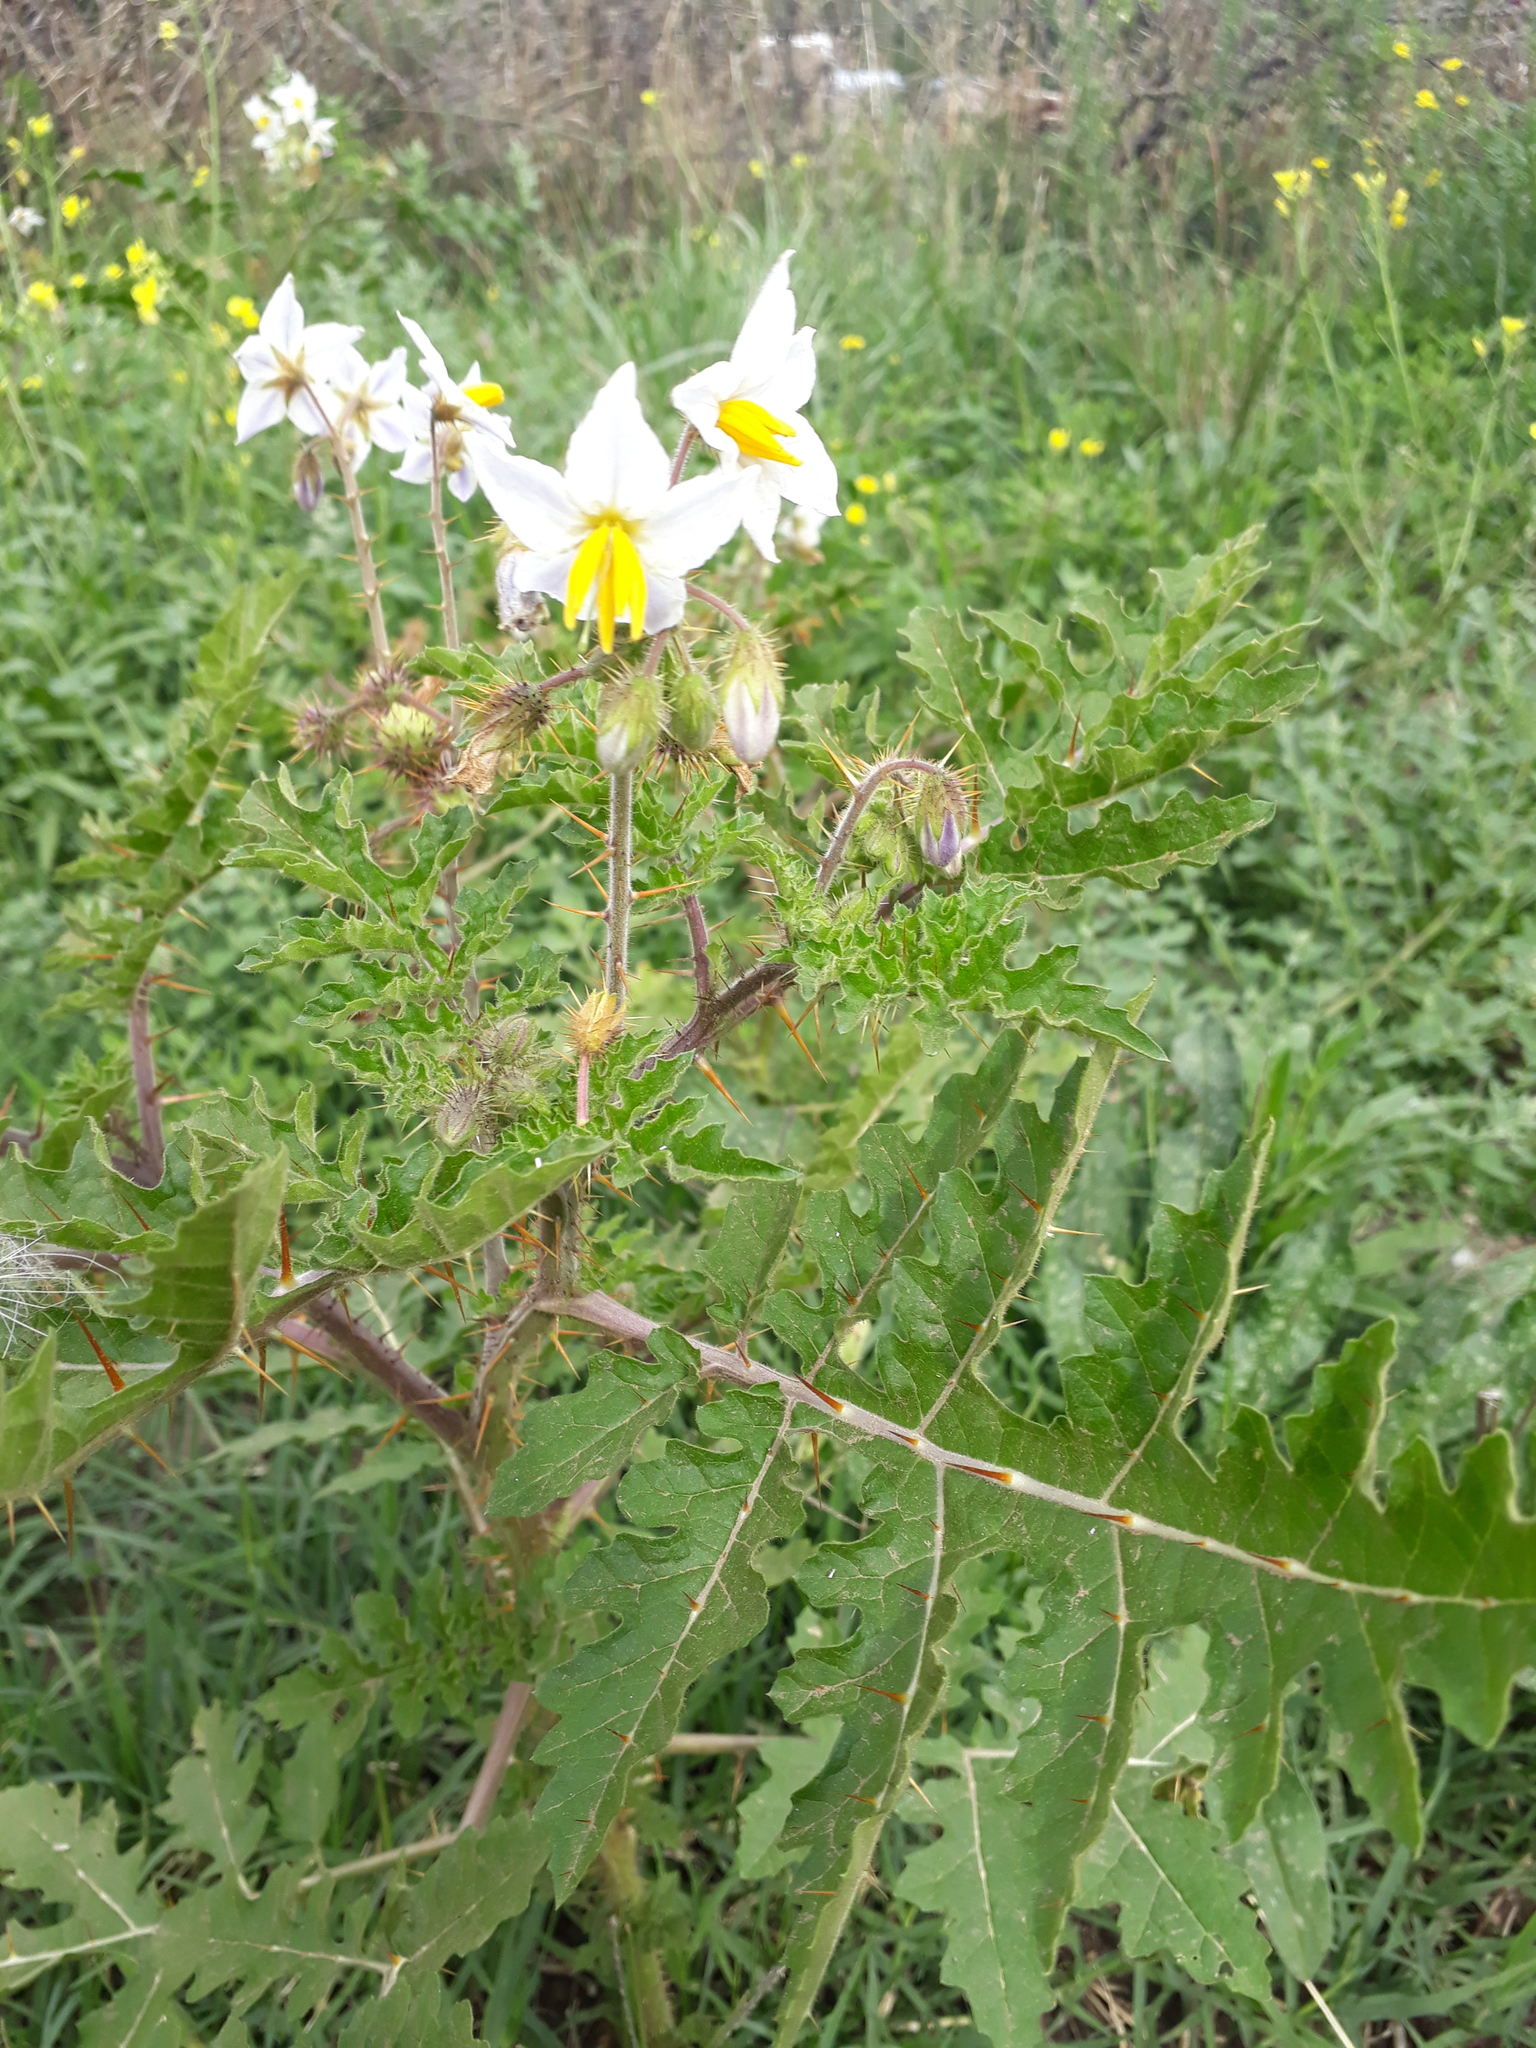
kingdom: Plantae
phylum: Tracheophyta
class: Magnoliopsida
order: Solanales
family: Solanaceae
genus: Solanum
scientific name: Solanum sisymbriifolium
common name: Red buffalo-bur
